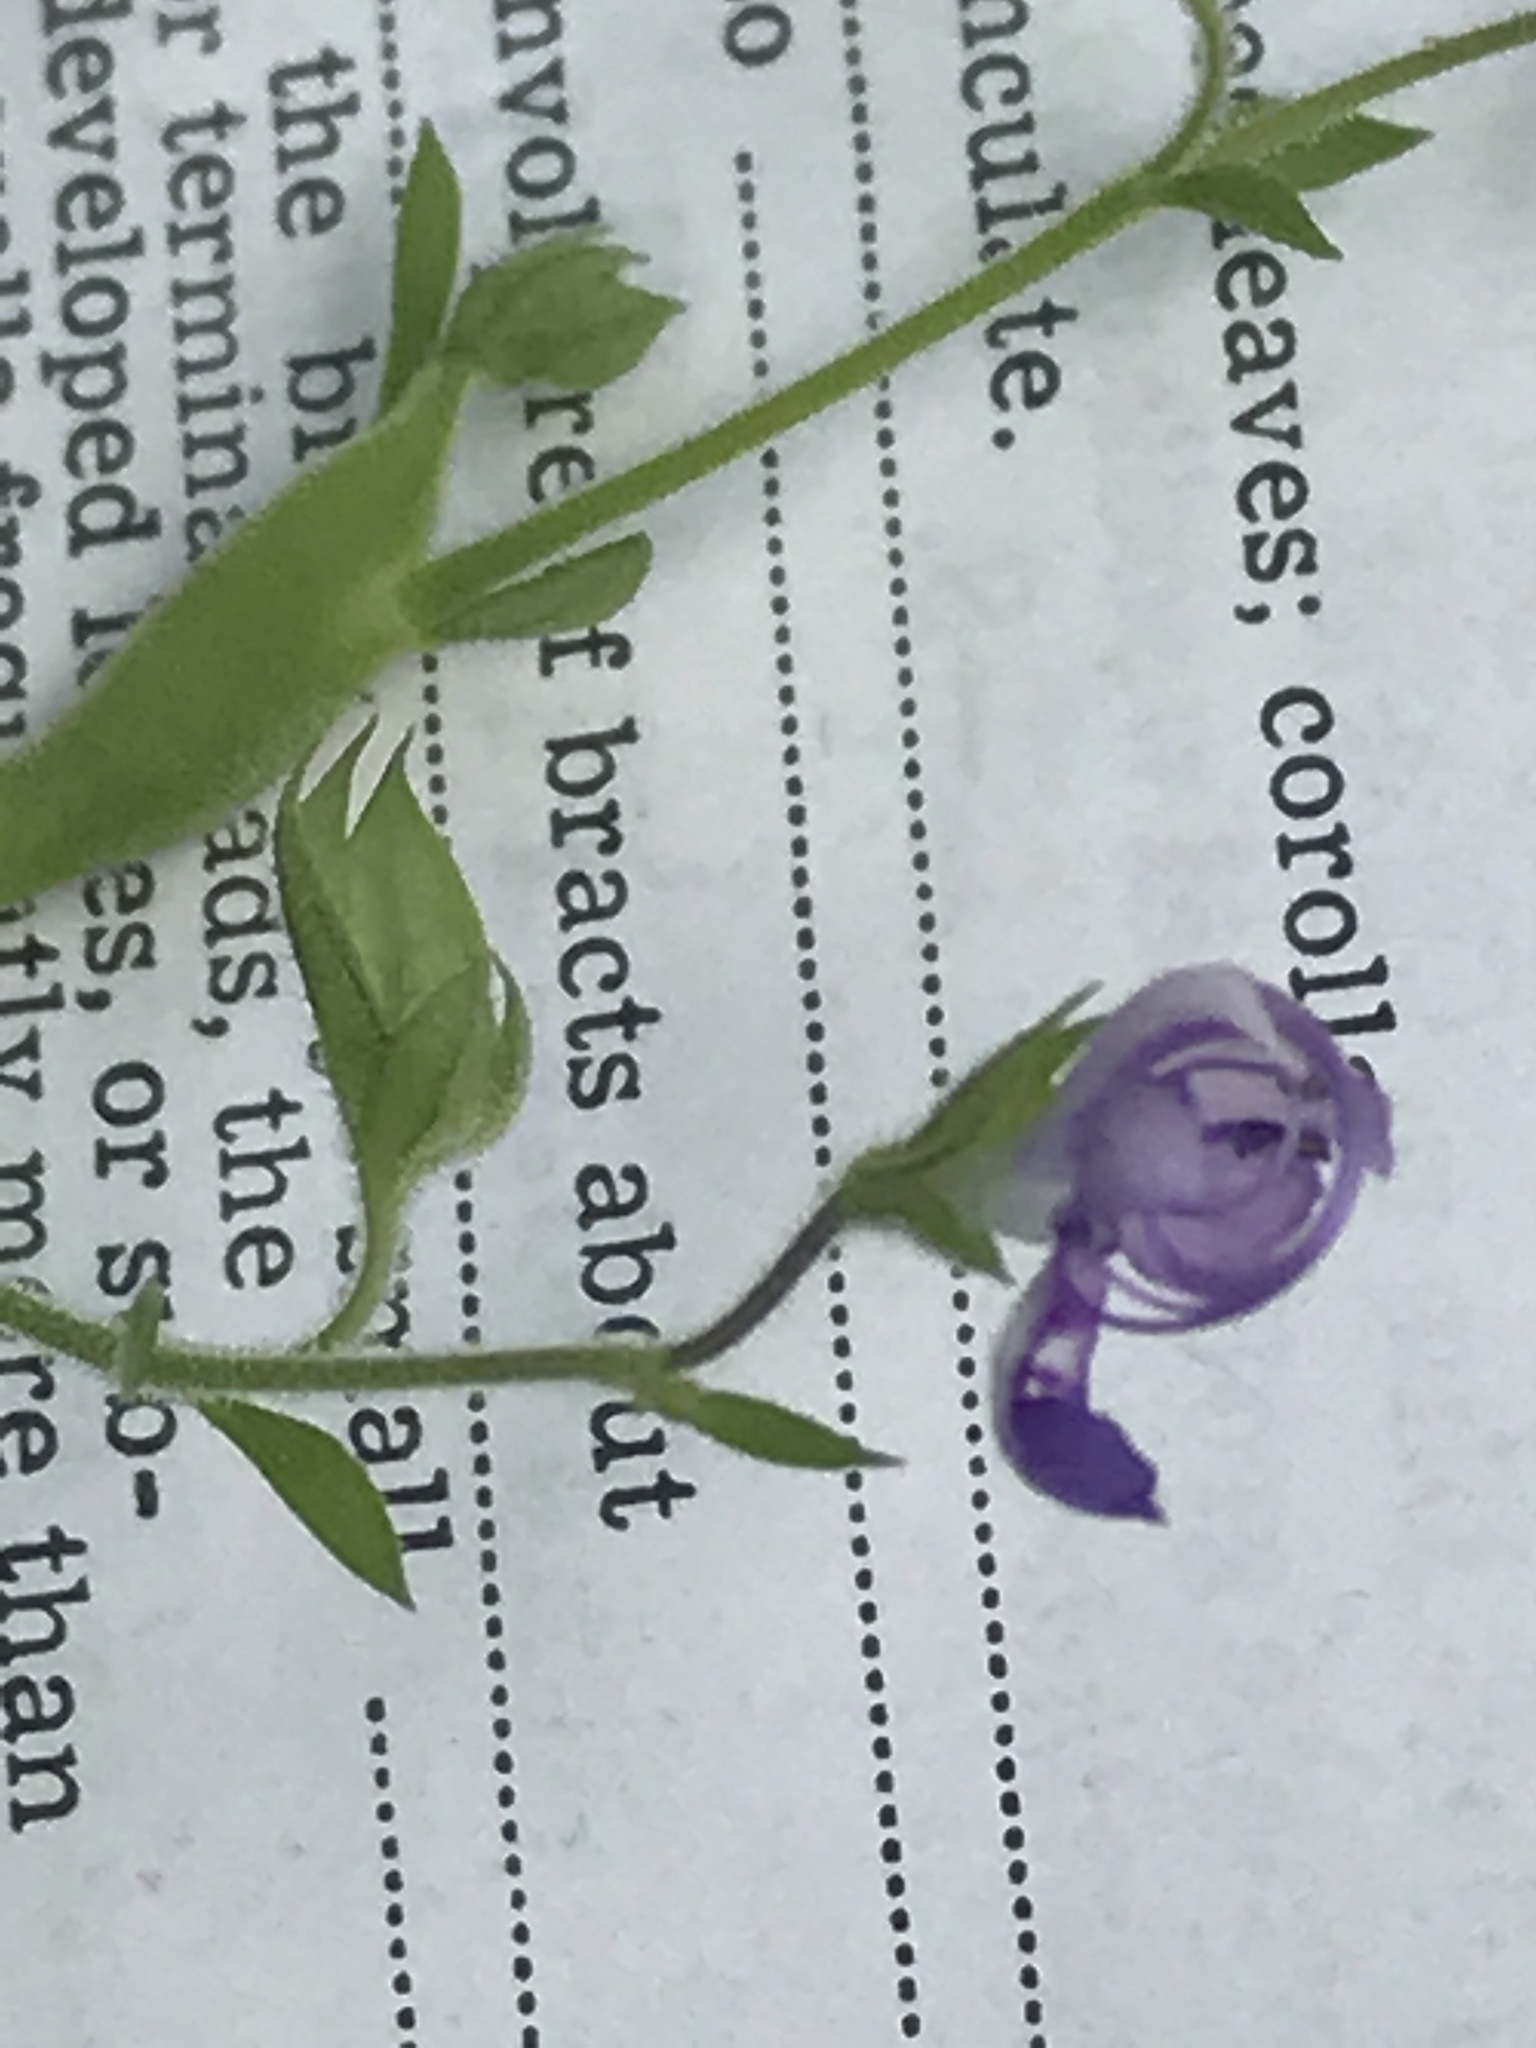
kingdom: Plantae
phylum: Tracheophyta
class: Magnoliopsida
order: Lamiales
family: Lamiaceae
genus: Trichostema
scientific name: Trichostema dichotomum
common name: Bastard pennyroyal
